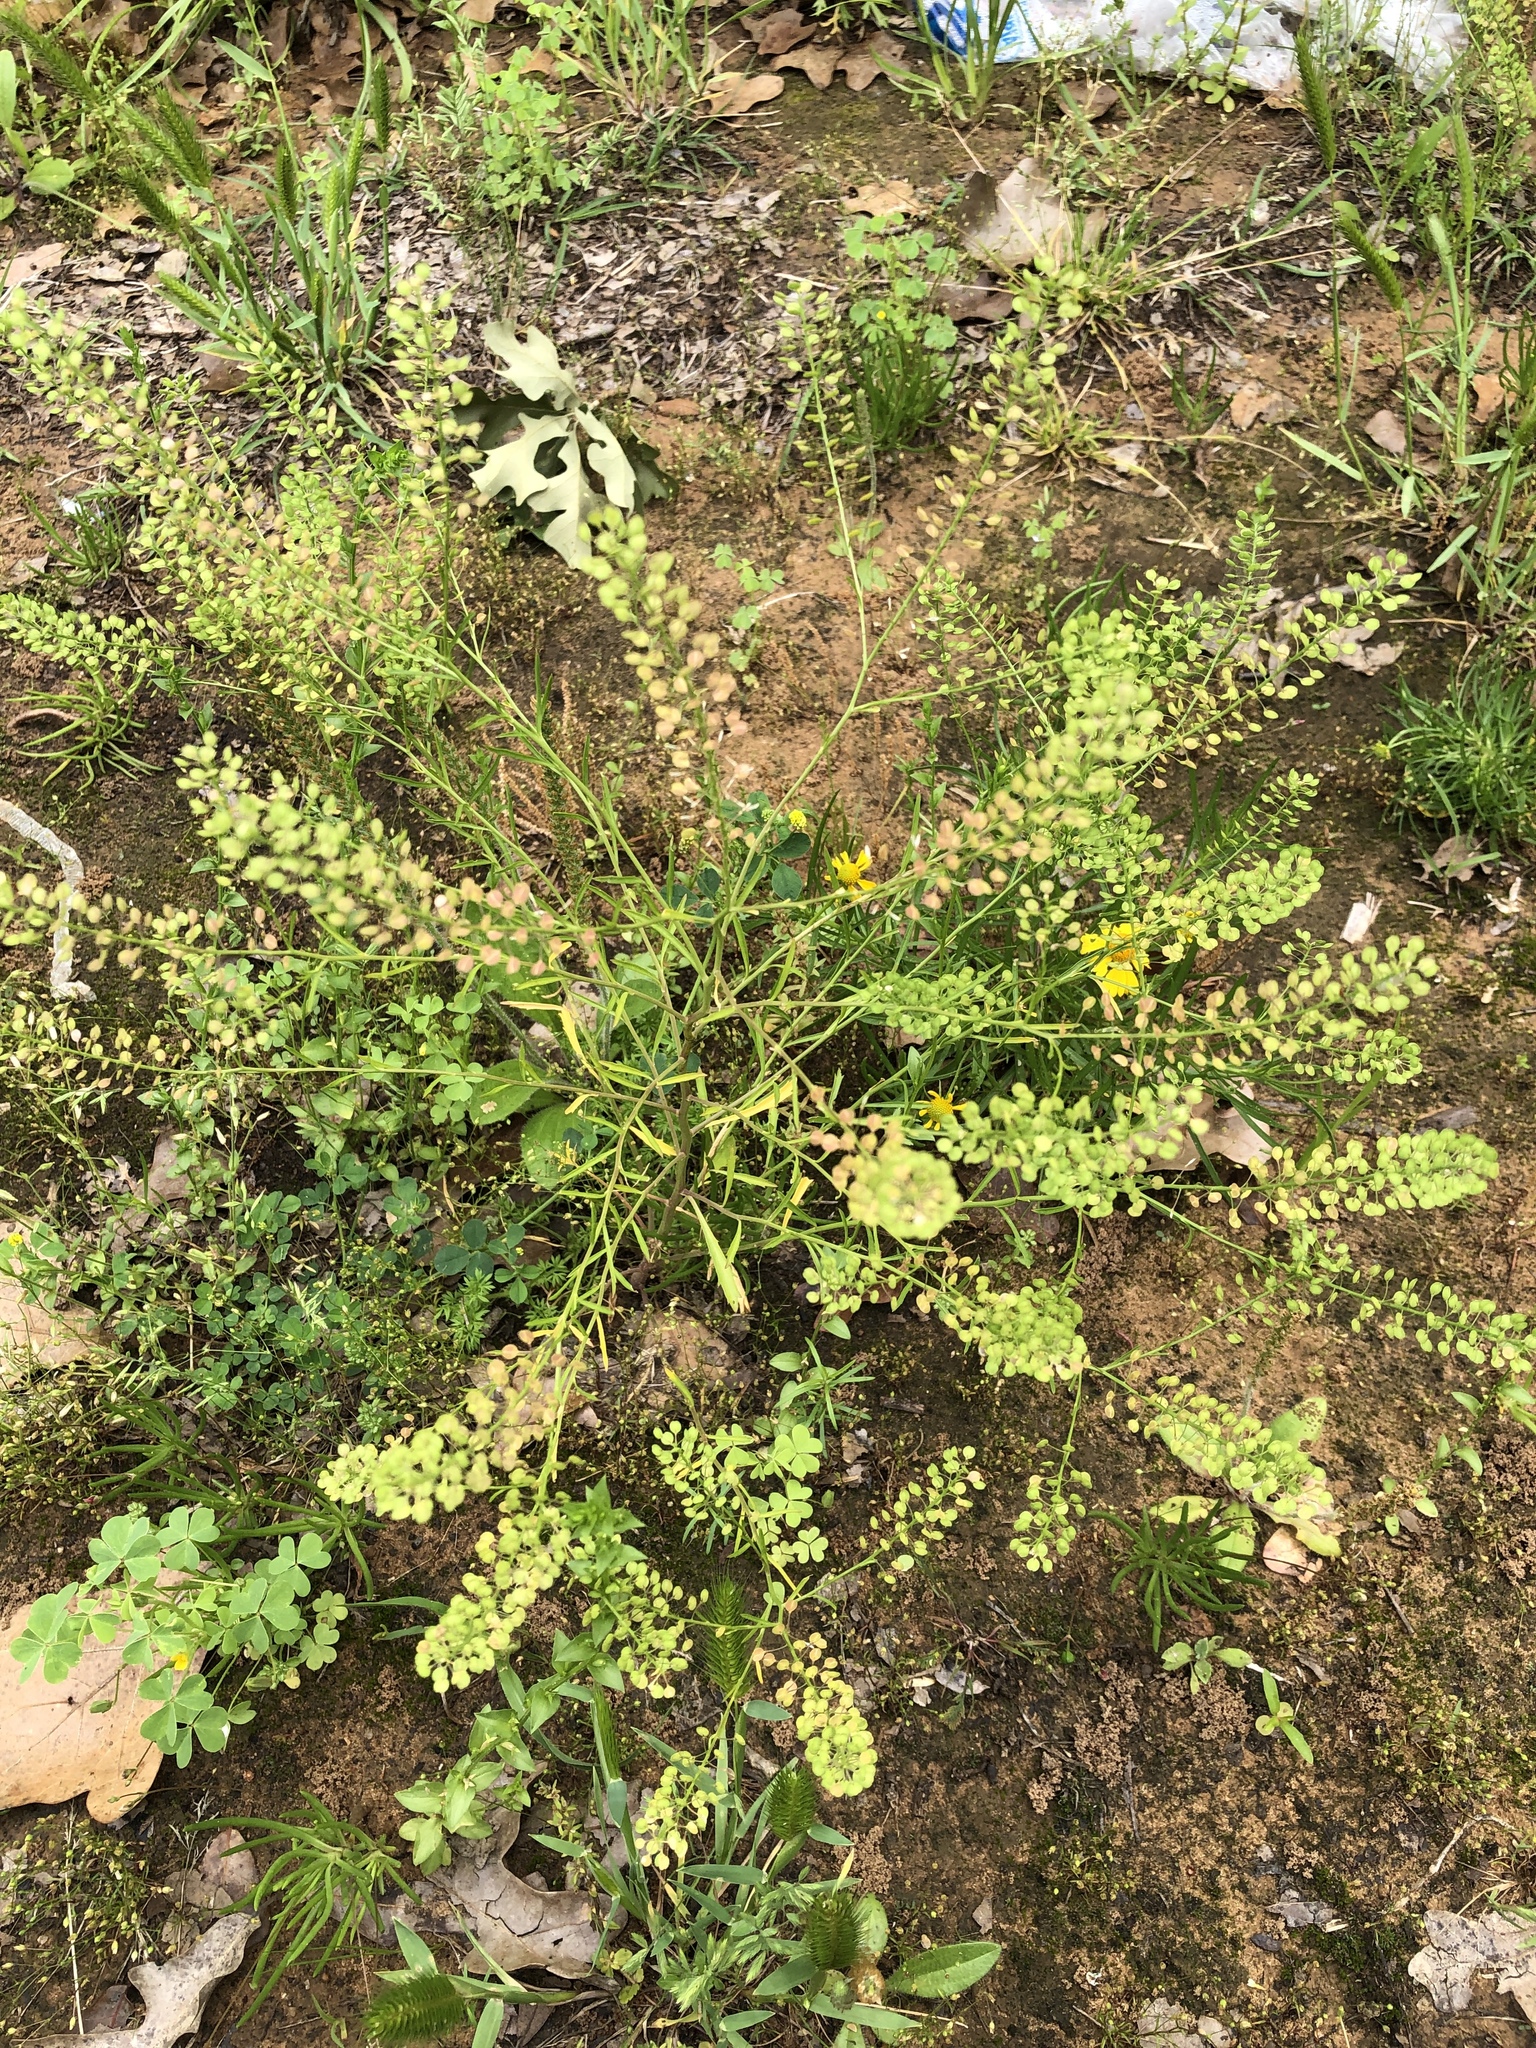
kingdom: Plantae
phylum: Tracheophyta
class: Magnoliopsida
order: Brassicales
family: Brassicaceae
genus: Lepidium
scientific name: Lepidium virginicum
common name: Least pepperwort
